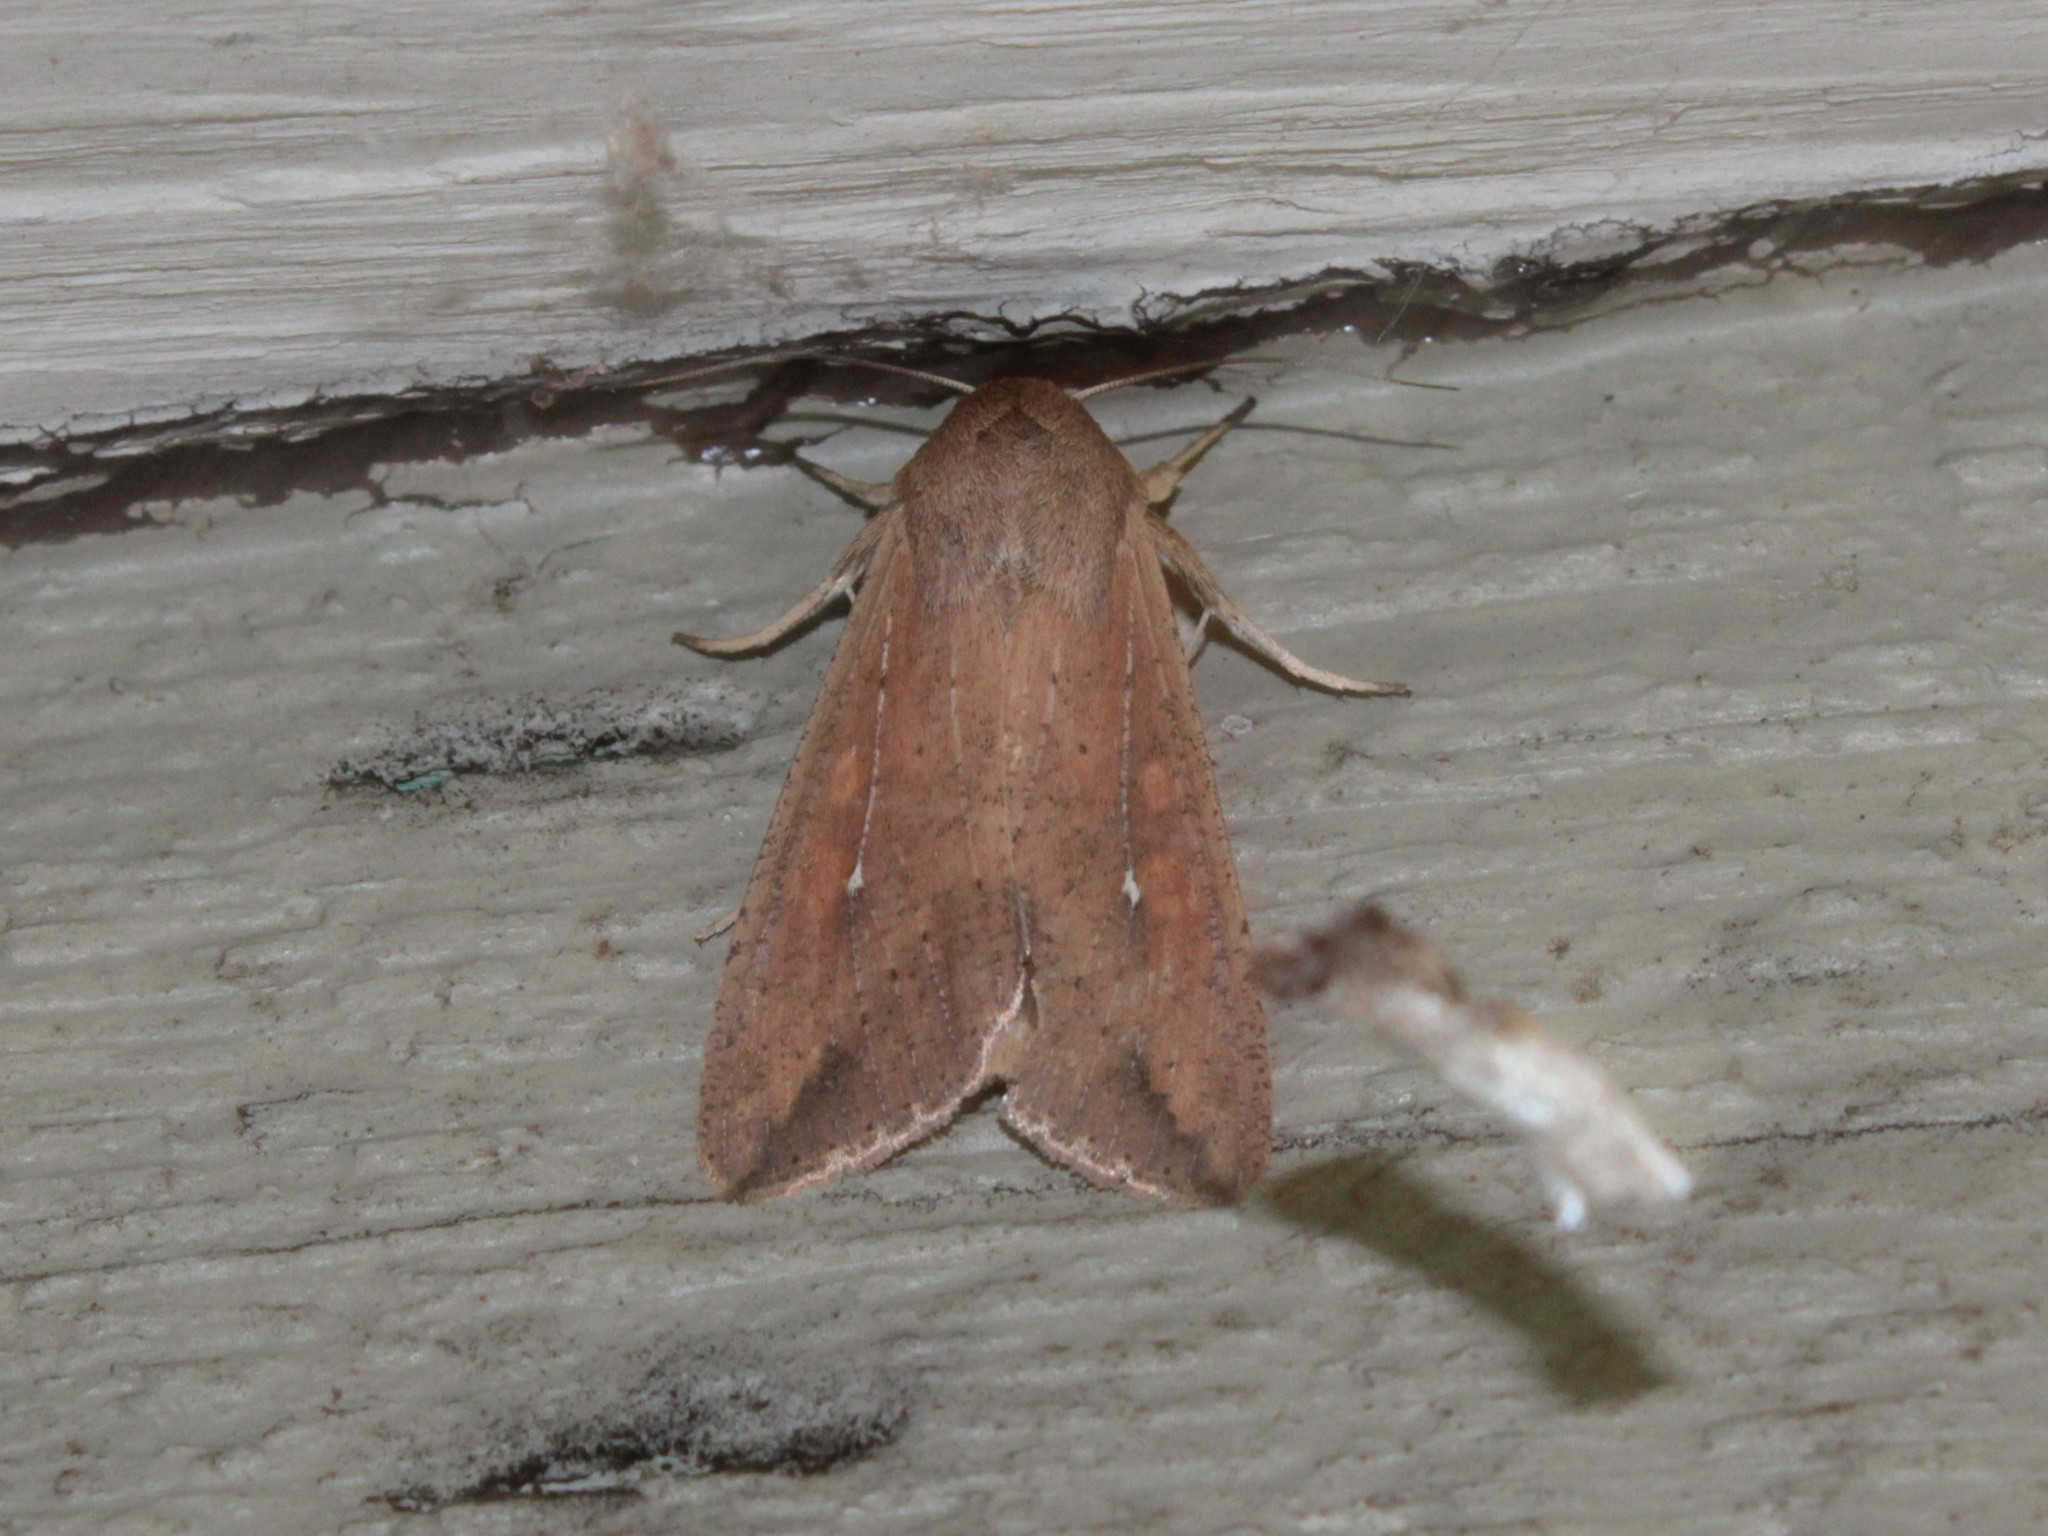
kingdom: Animalia
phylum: Arthropoda
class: Insecta
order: Lepidoptera
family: Noctuidae
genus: Mythimna
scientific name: Mythimna unipuncta
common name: White-speck
